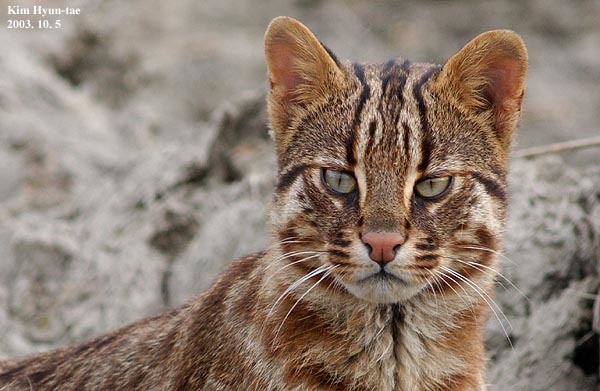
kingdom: Animalia
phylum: Chordata
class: Mammalia
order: Carnivora
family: Felidae
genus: Prionailurus
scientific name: Prionailurus bengalensis
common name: Leopard cat
